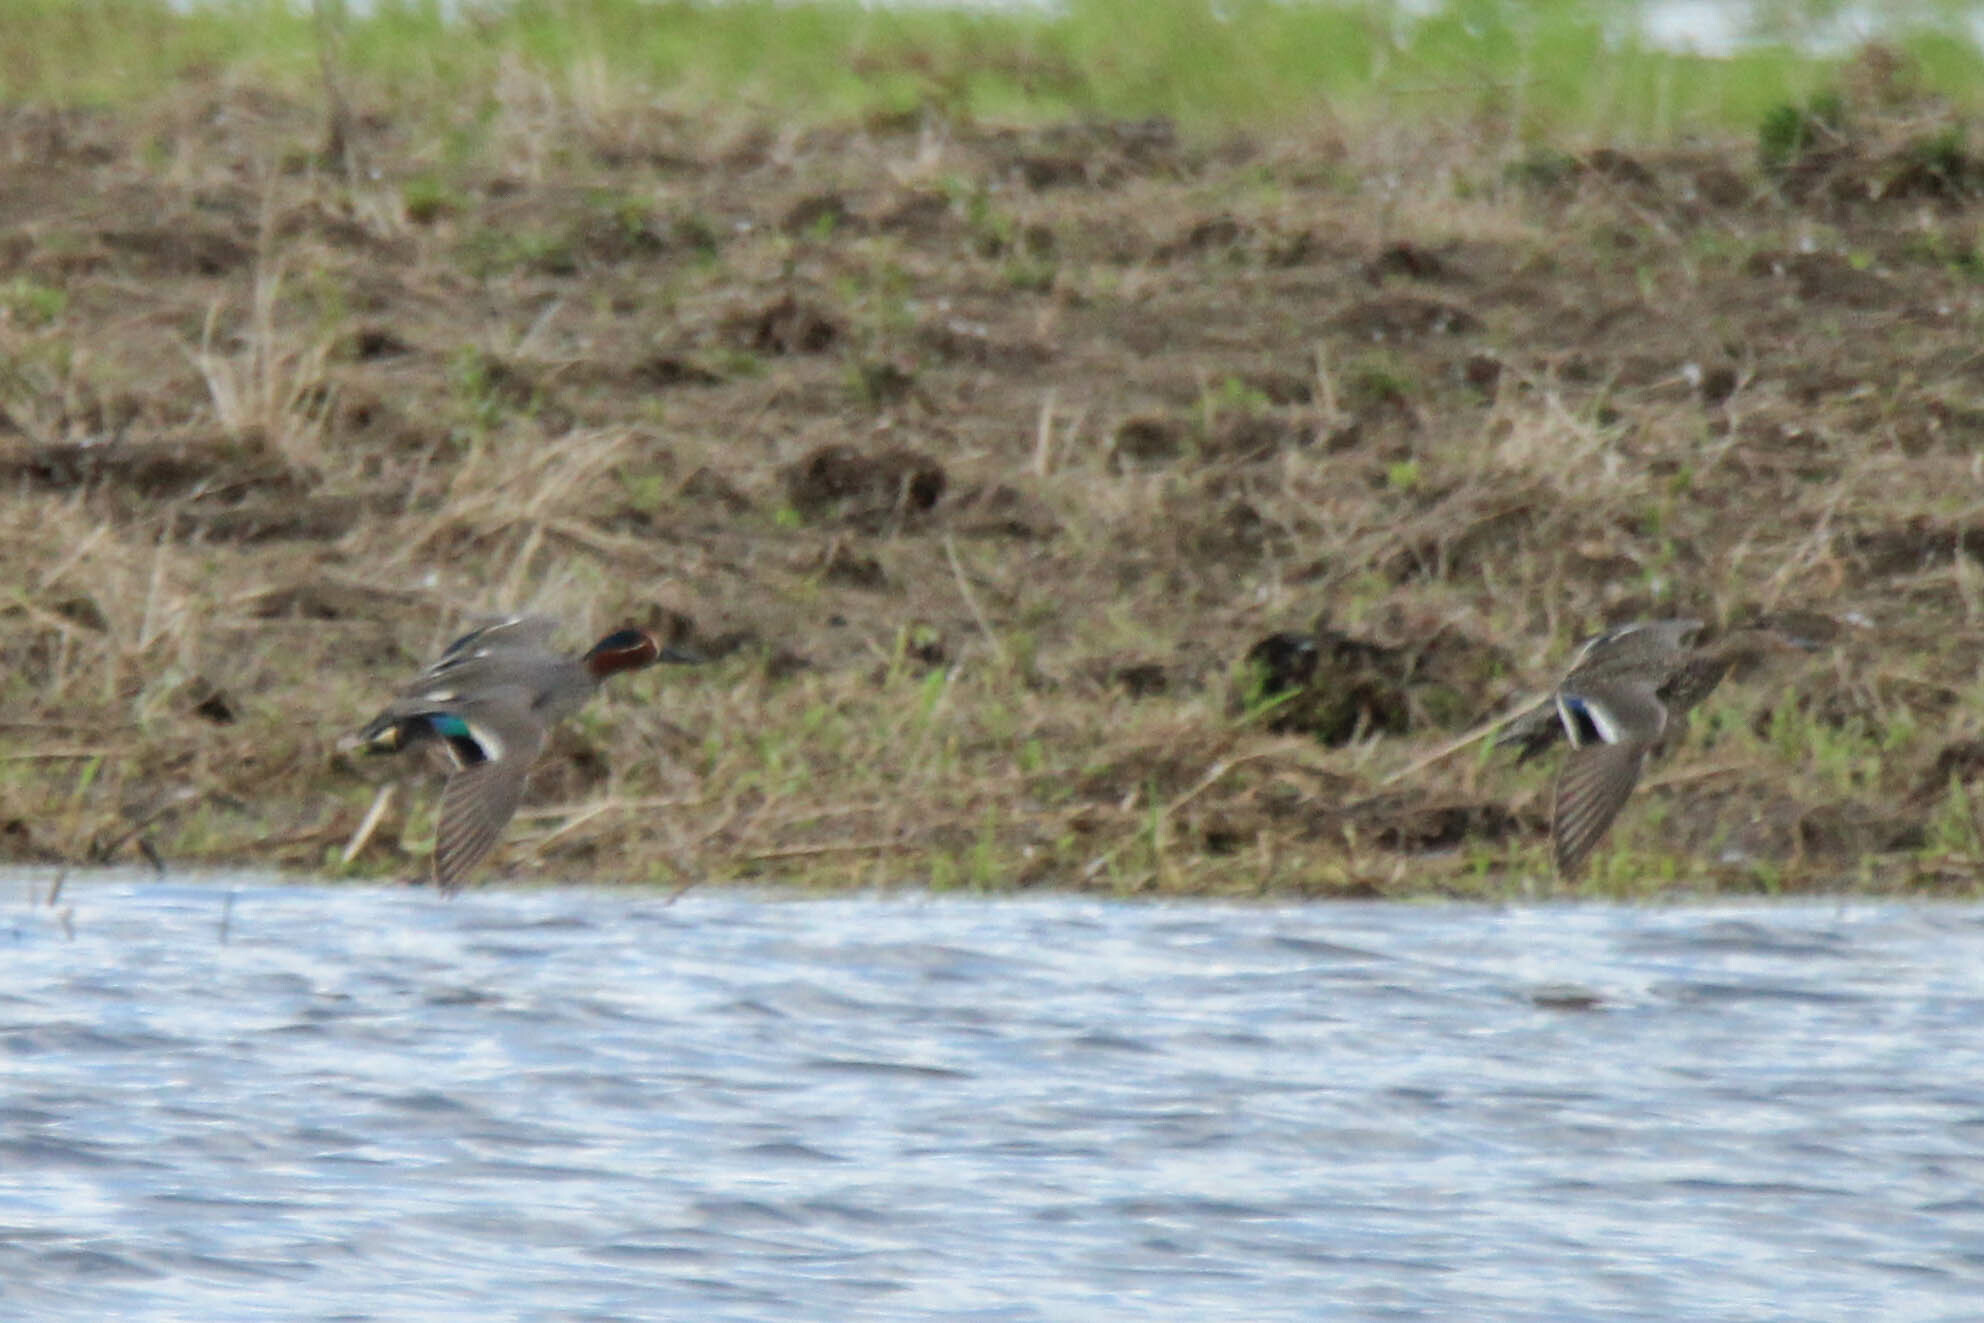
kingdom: Animalia
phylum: Chordata
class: Aves
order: Anseriformes
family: Anatidae
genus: Anas
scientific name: Anas crecca
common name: Eurasian teal
